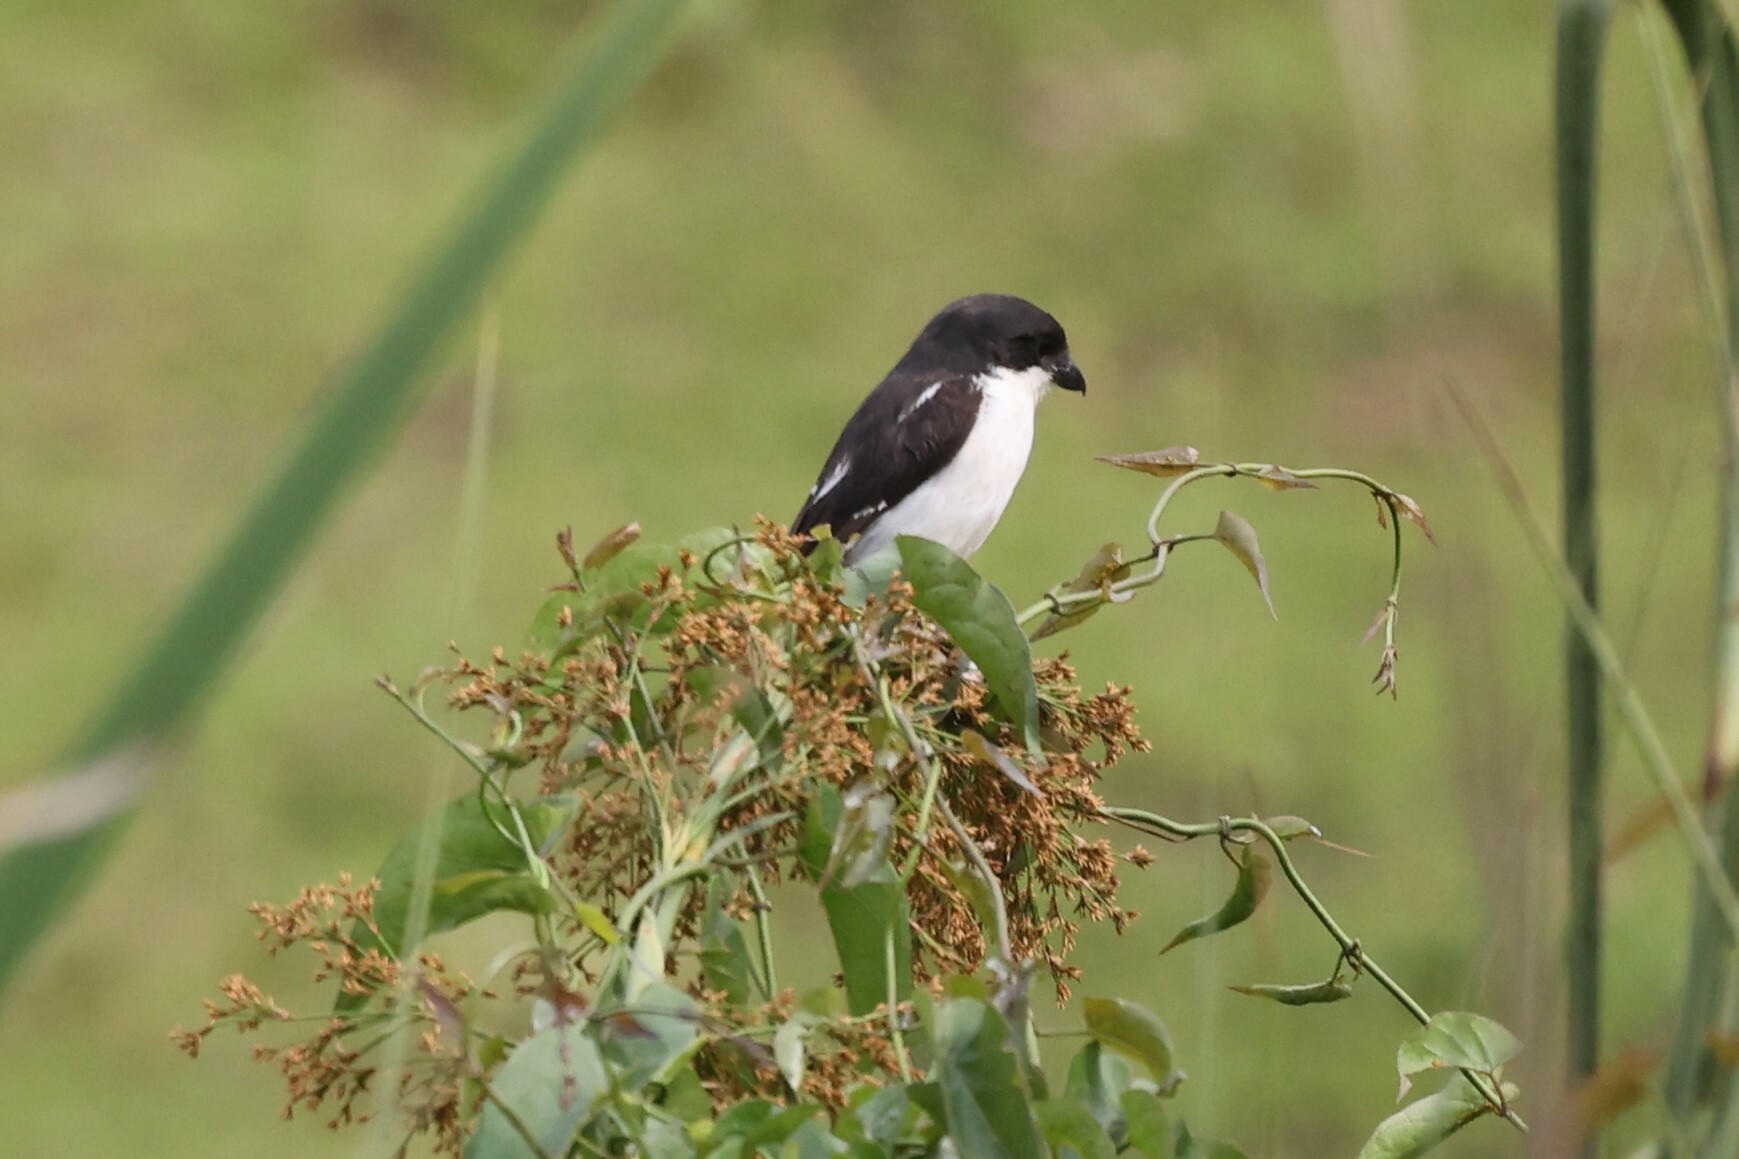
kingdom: Animalia
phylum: Chordata
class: Aves
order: Passeriformes
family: Laniidae
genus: Lanius
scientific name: Lanius humeralis
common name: Northern fiscal
